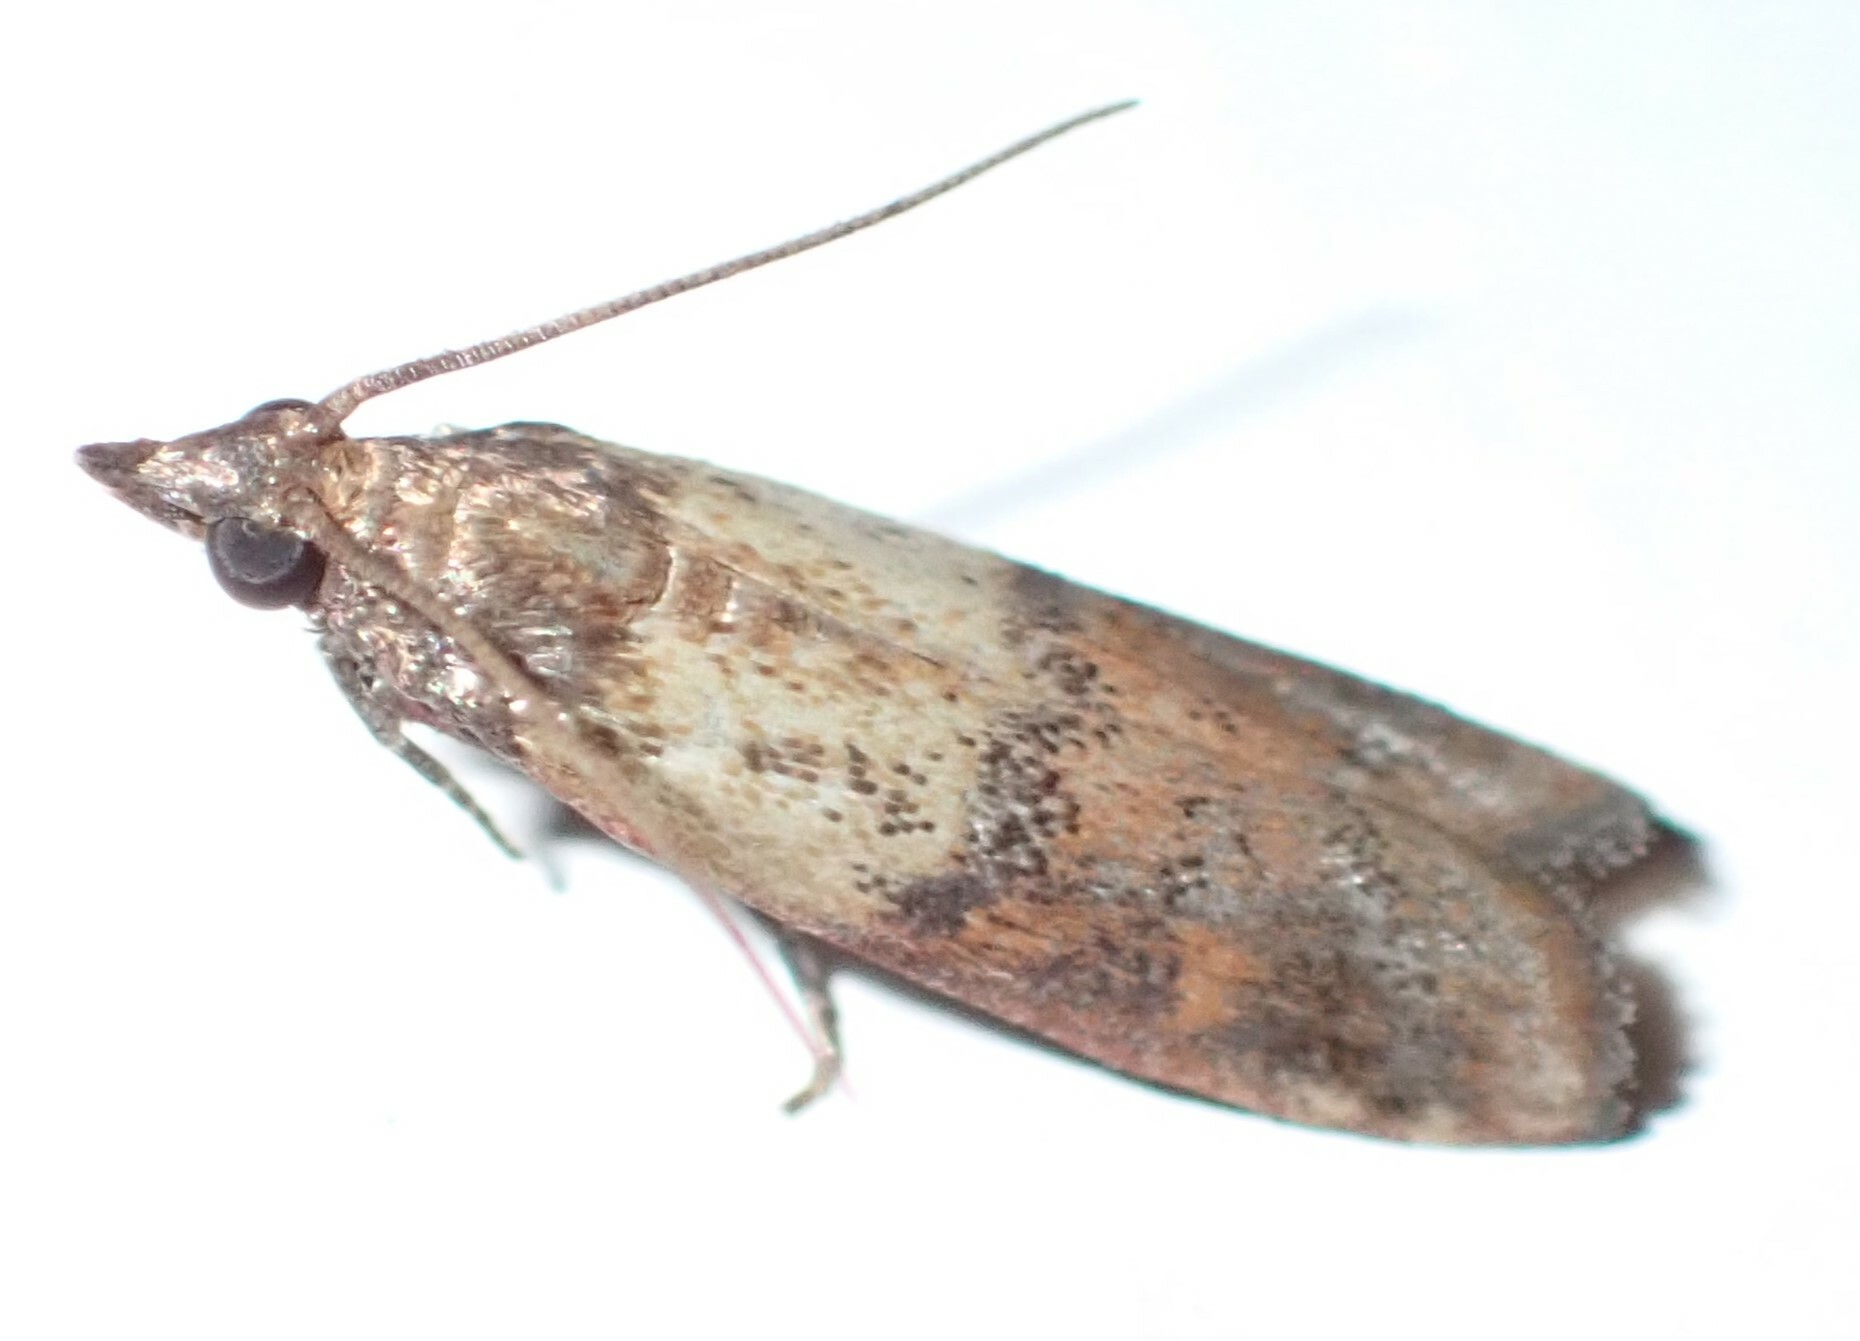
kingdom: Animalia
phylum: Arthropoda
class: Insecta
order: Lepidoptera
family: Pyralidae
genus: Plodia
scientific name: Plodia interpunctella
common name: Indian meal moth
